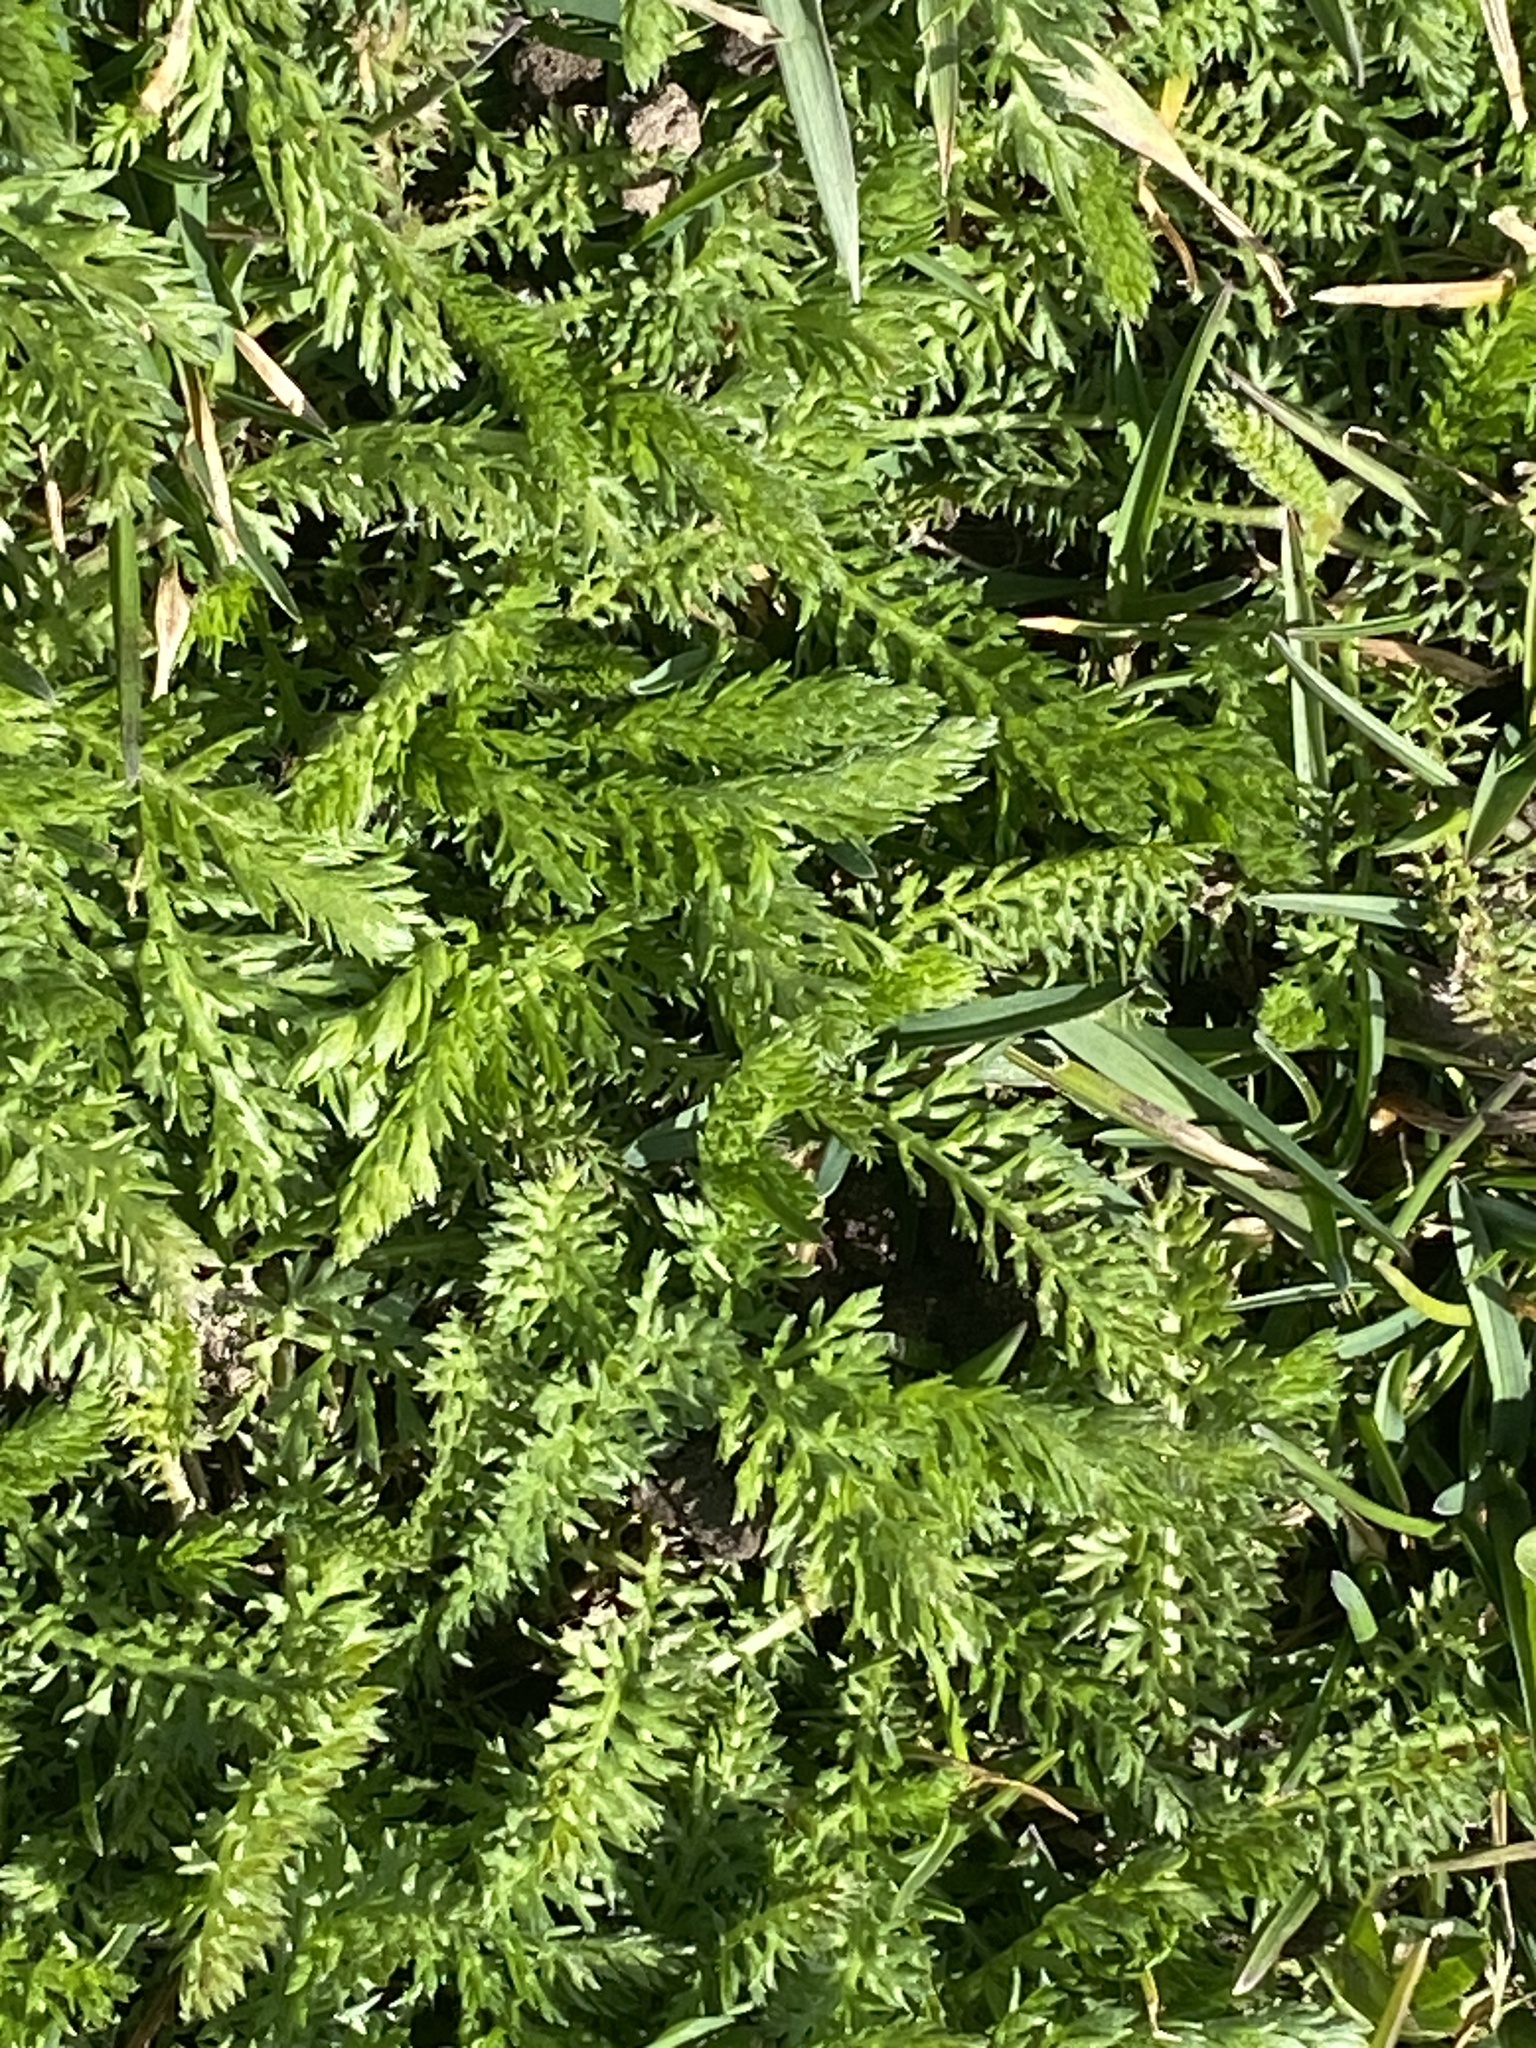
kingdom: Plantae
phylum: Tracheophyta
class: Magnoliopsida
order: Asterales
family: Asteraceae
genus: Achillea
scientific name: Achillea millefolium
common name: Yarrow
